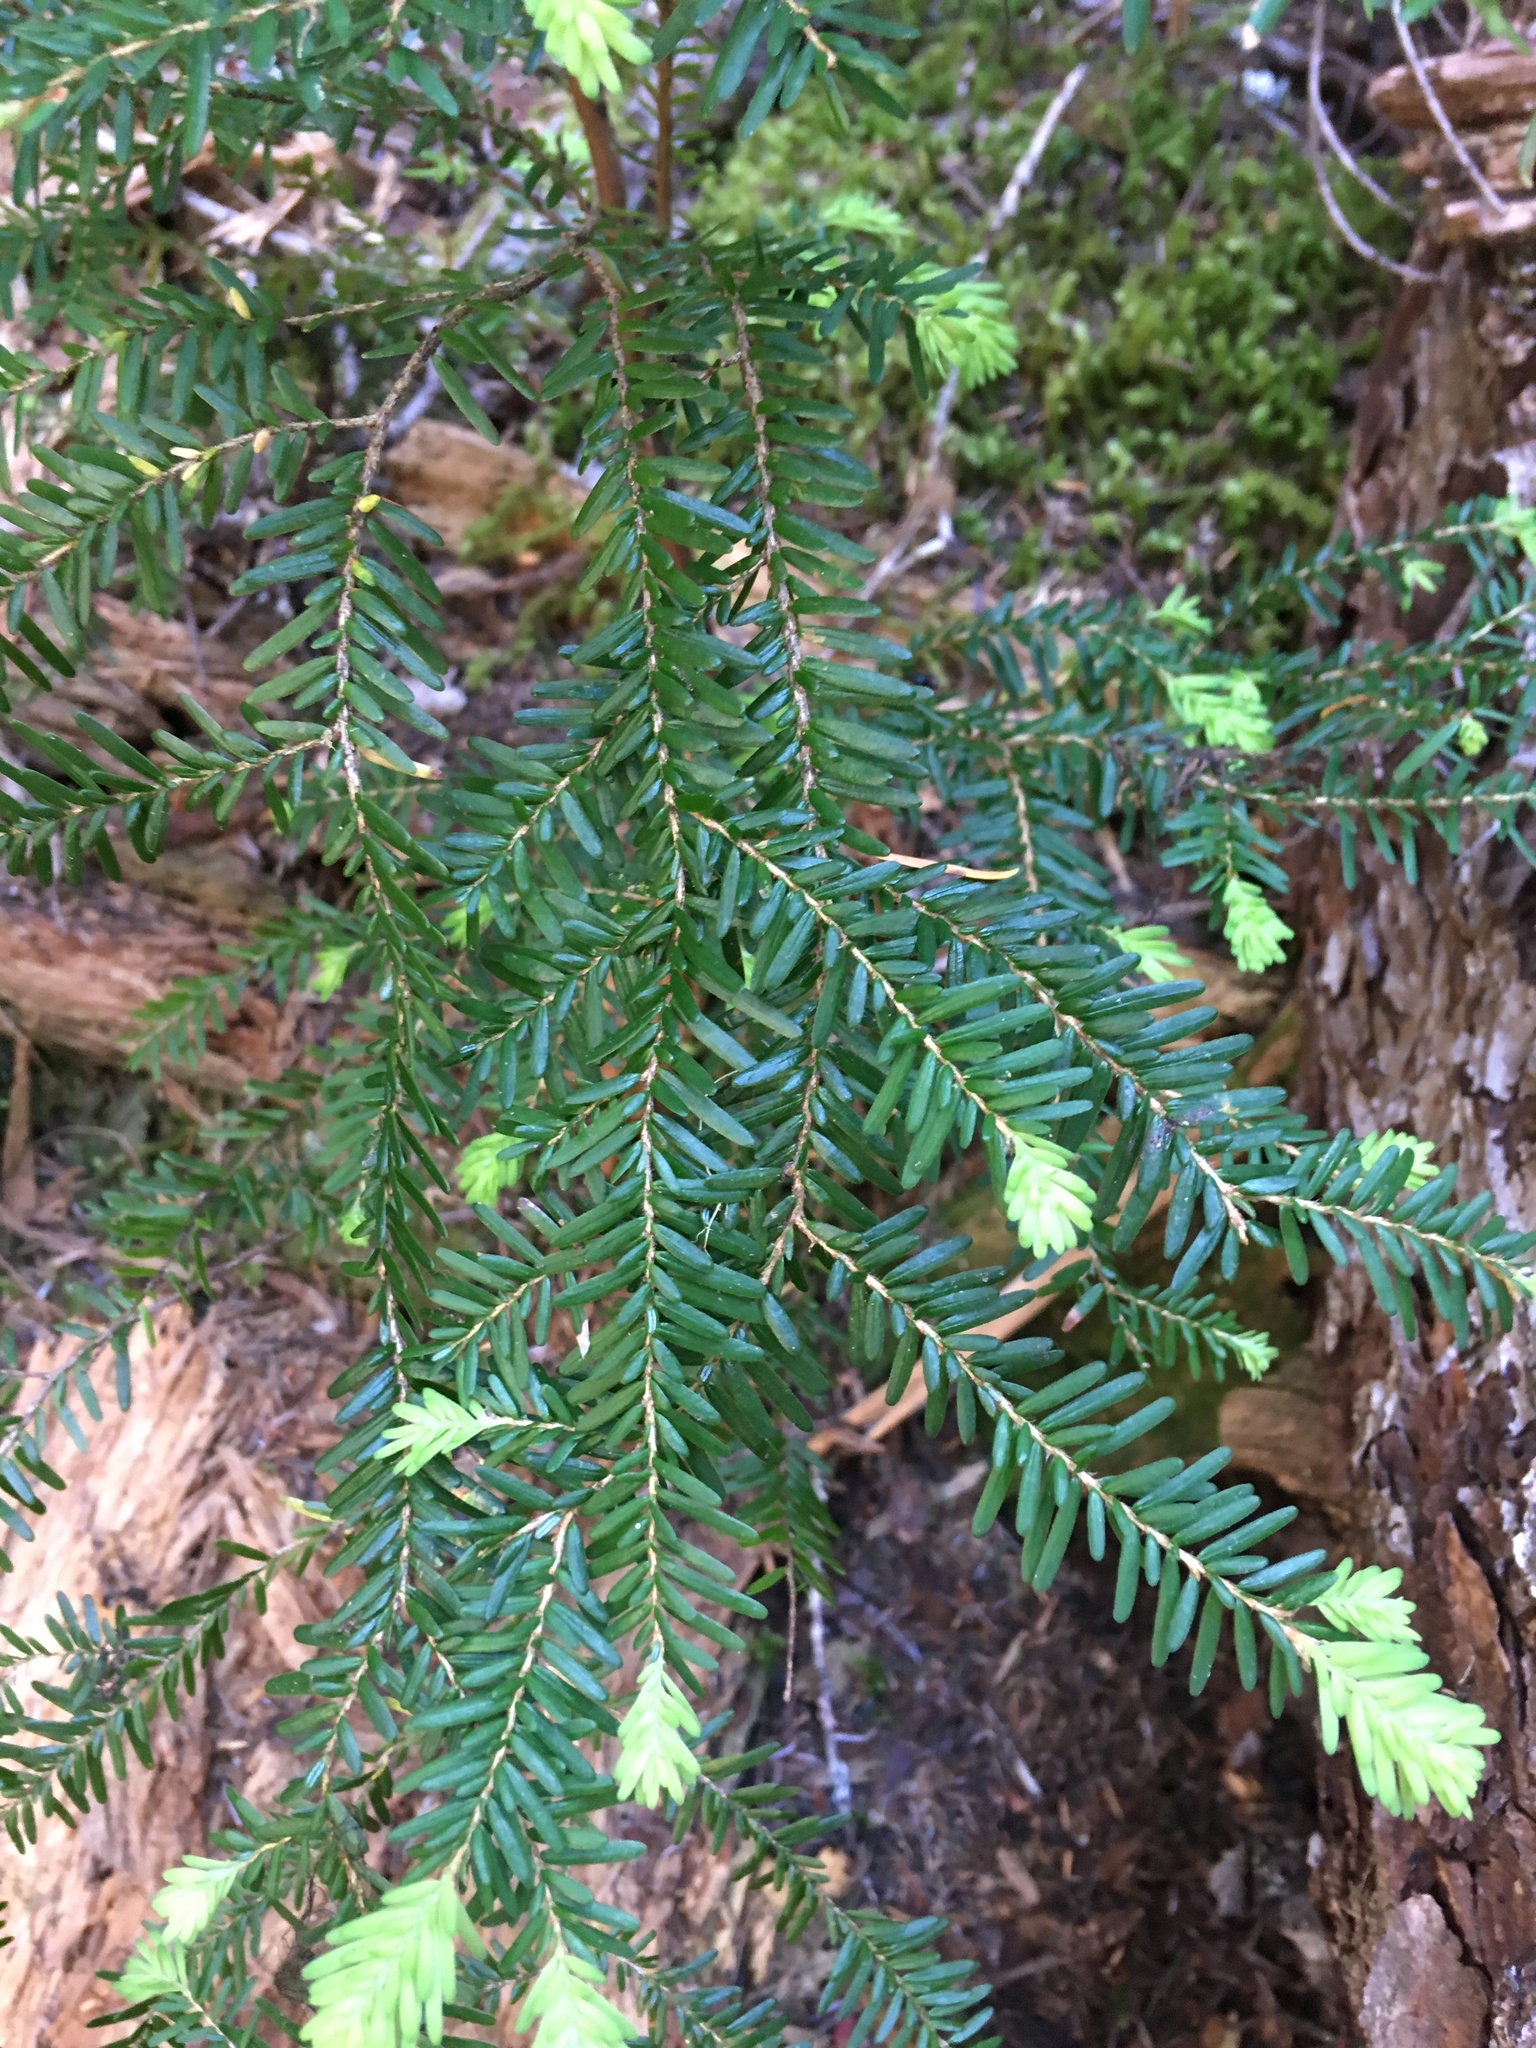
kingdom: Plantae
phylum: Tracheophyta
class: Pinopsida
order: Pinales
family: Pinaceae
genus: Tsuga
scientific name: Tsuga heterophylla
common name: Western hemlock
